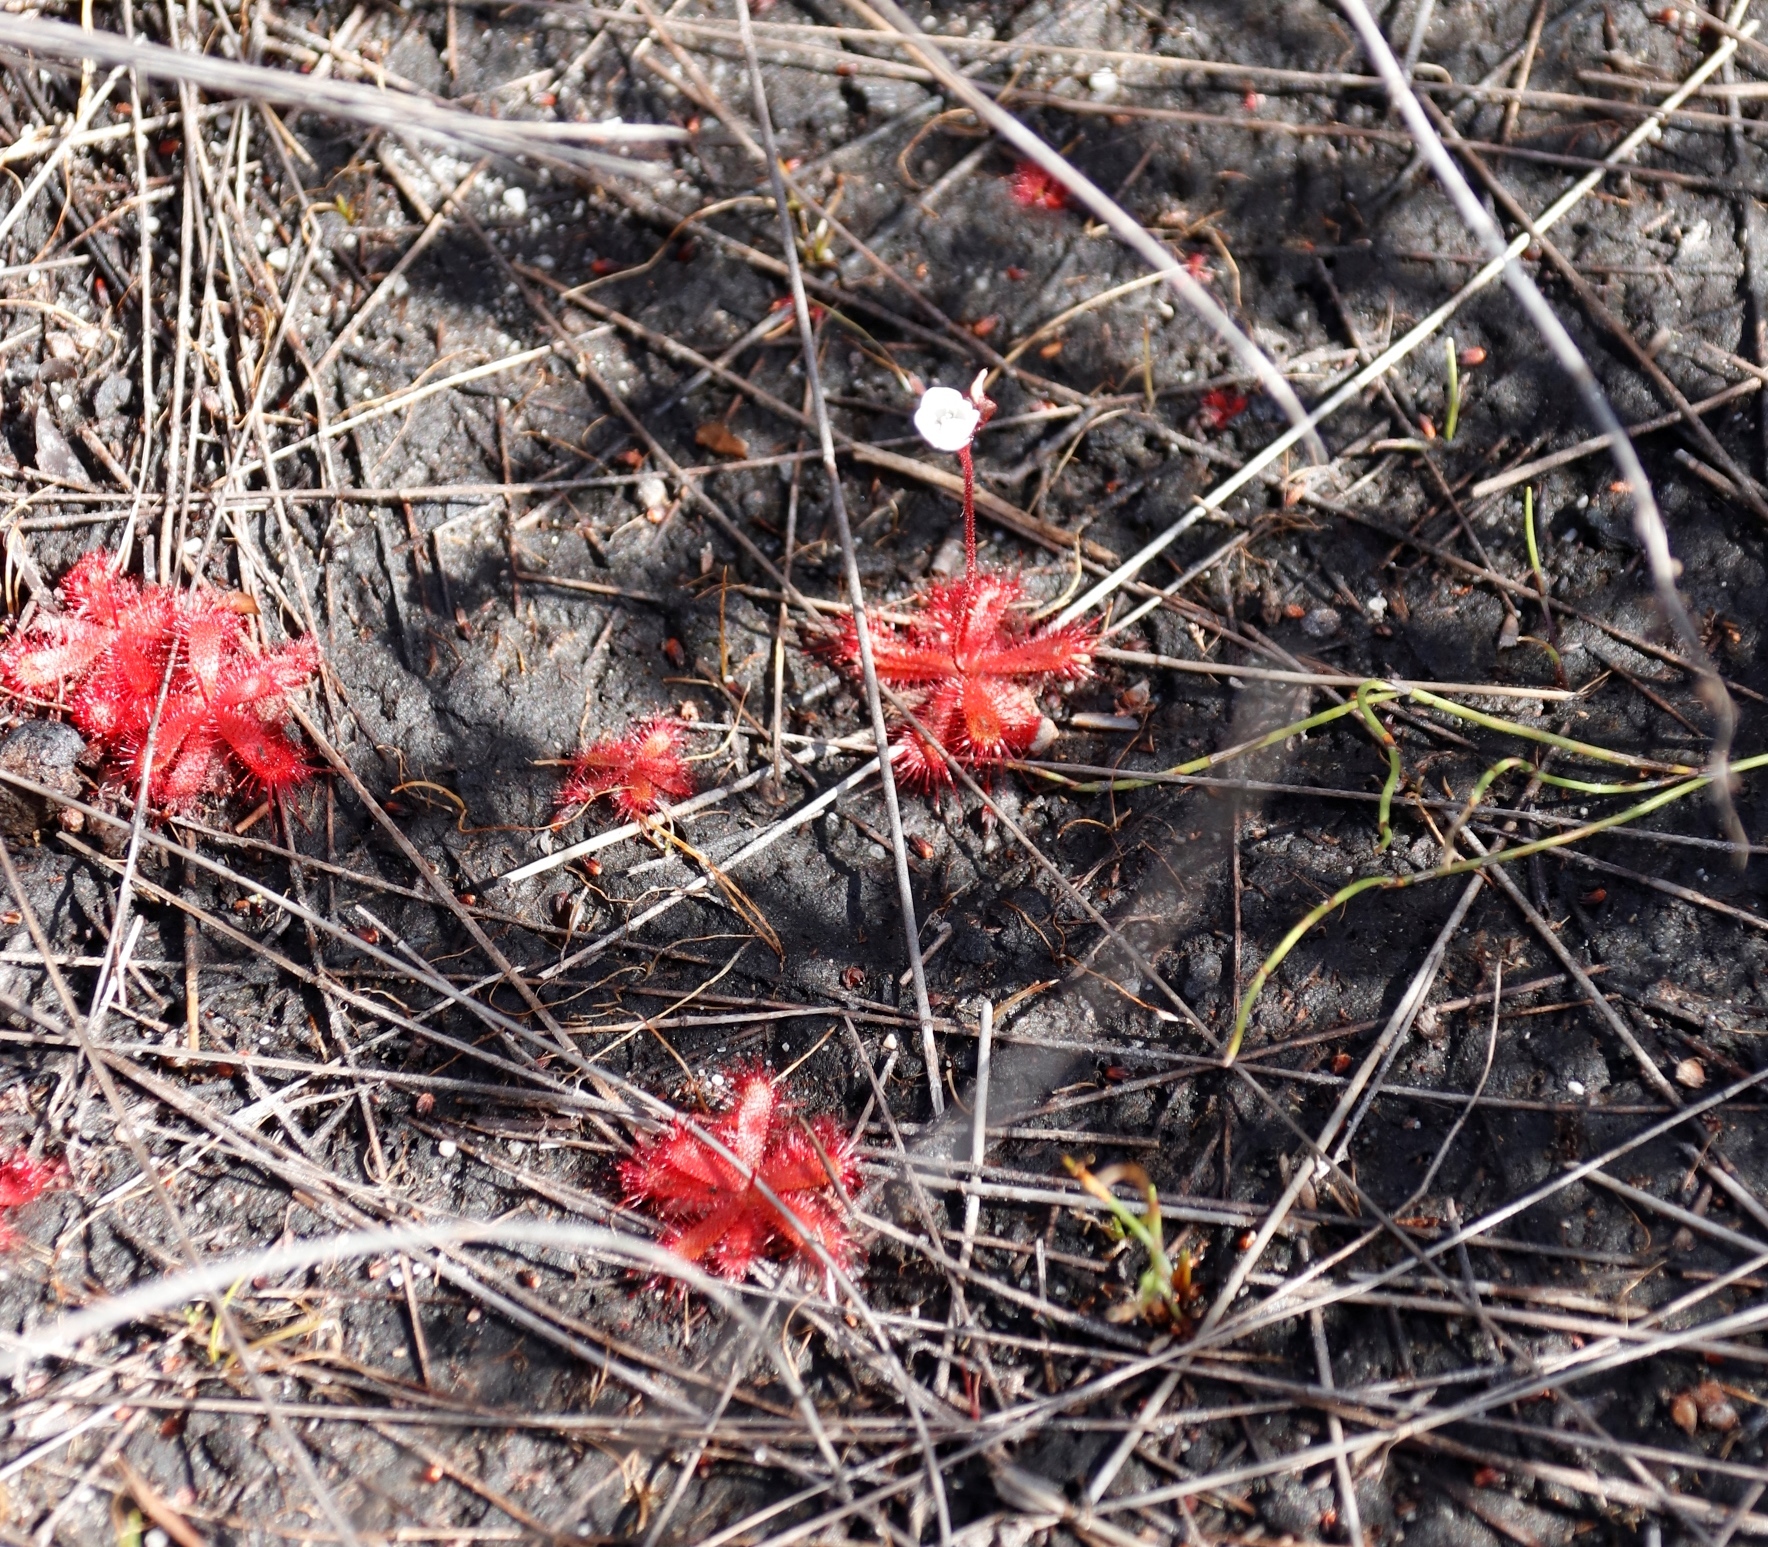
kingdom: Plantae
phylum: Tracheophyta
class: Magnoliopsida
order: Caryophyllales
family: Droseraceae
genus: Drosera
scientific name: Drosera trinervia
